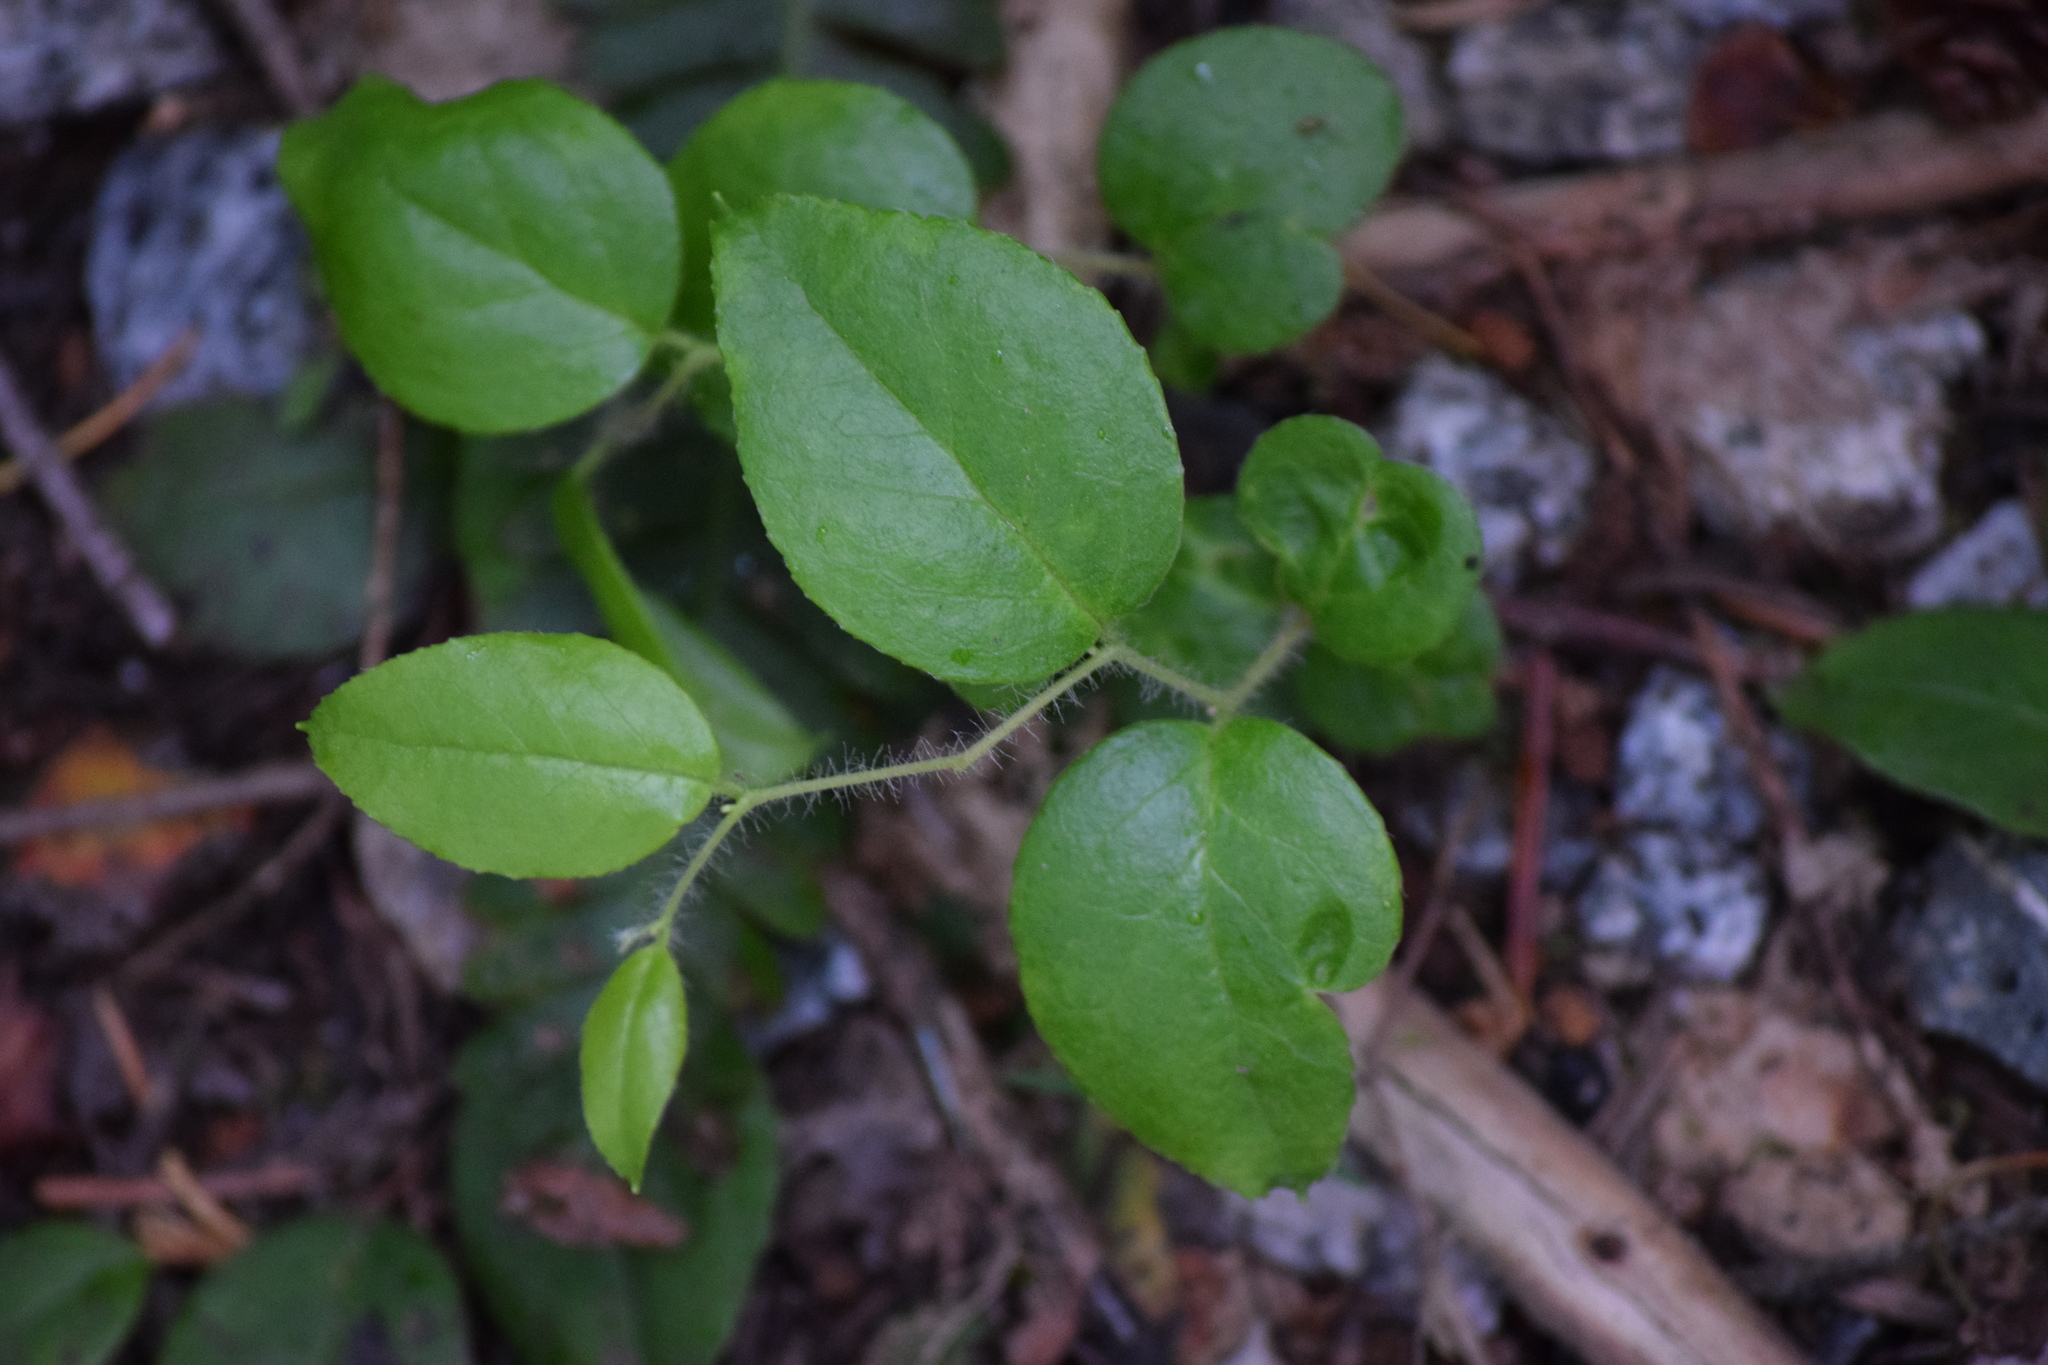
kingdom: Plantae
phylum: Tracheophyta
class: Magnoliopsida
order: Ericales
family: Ericaceae
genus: Gaultheria
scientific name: Gaultheria ovatifolia
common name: Oregon wintergreen
